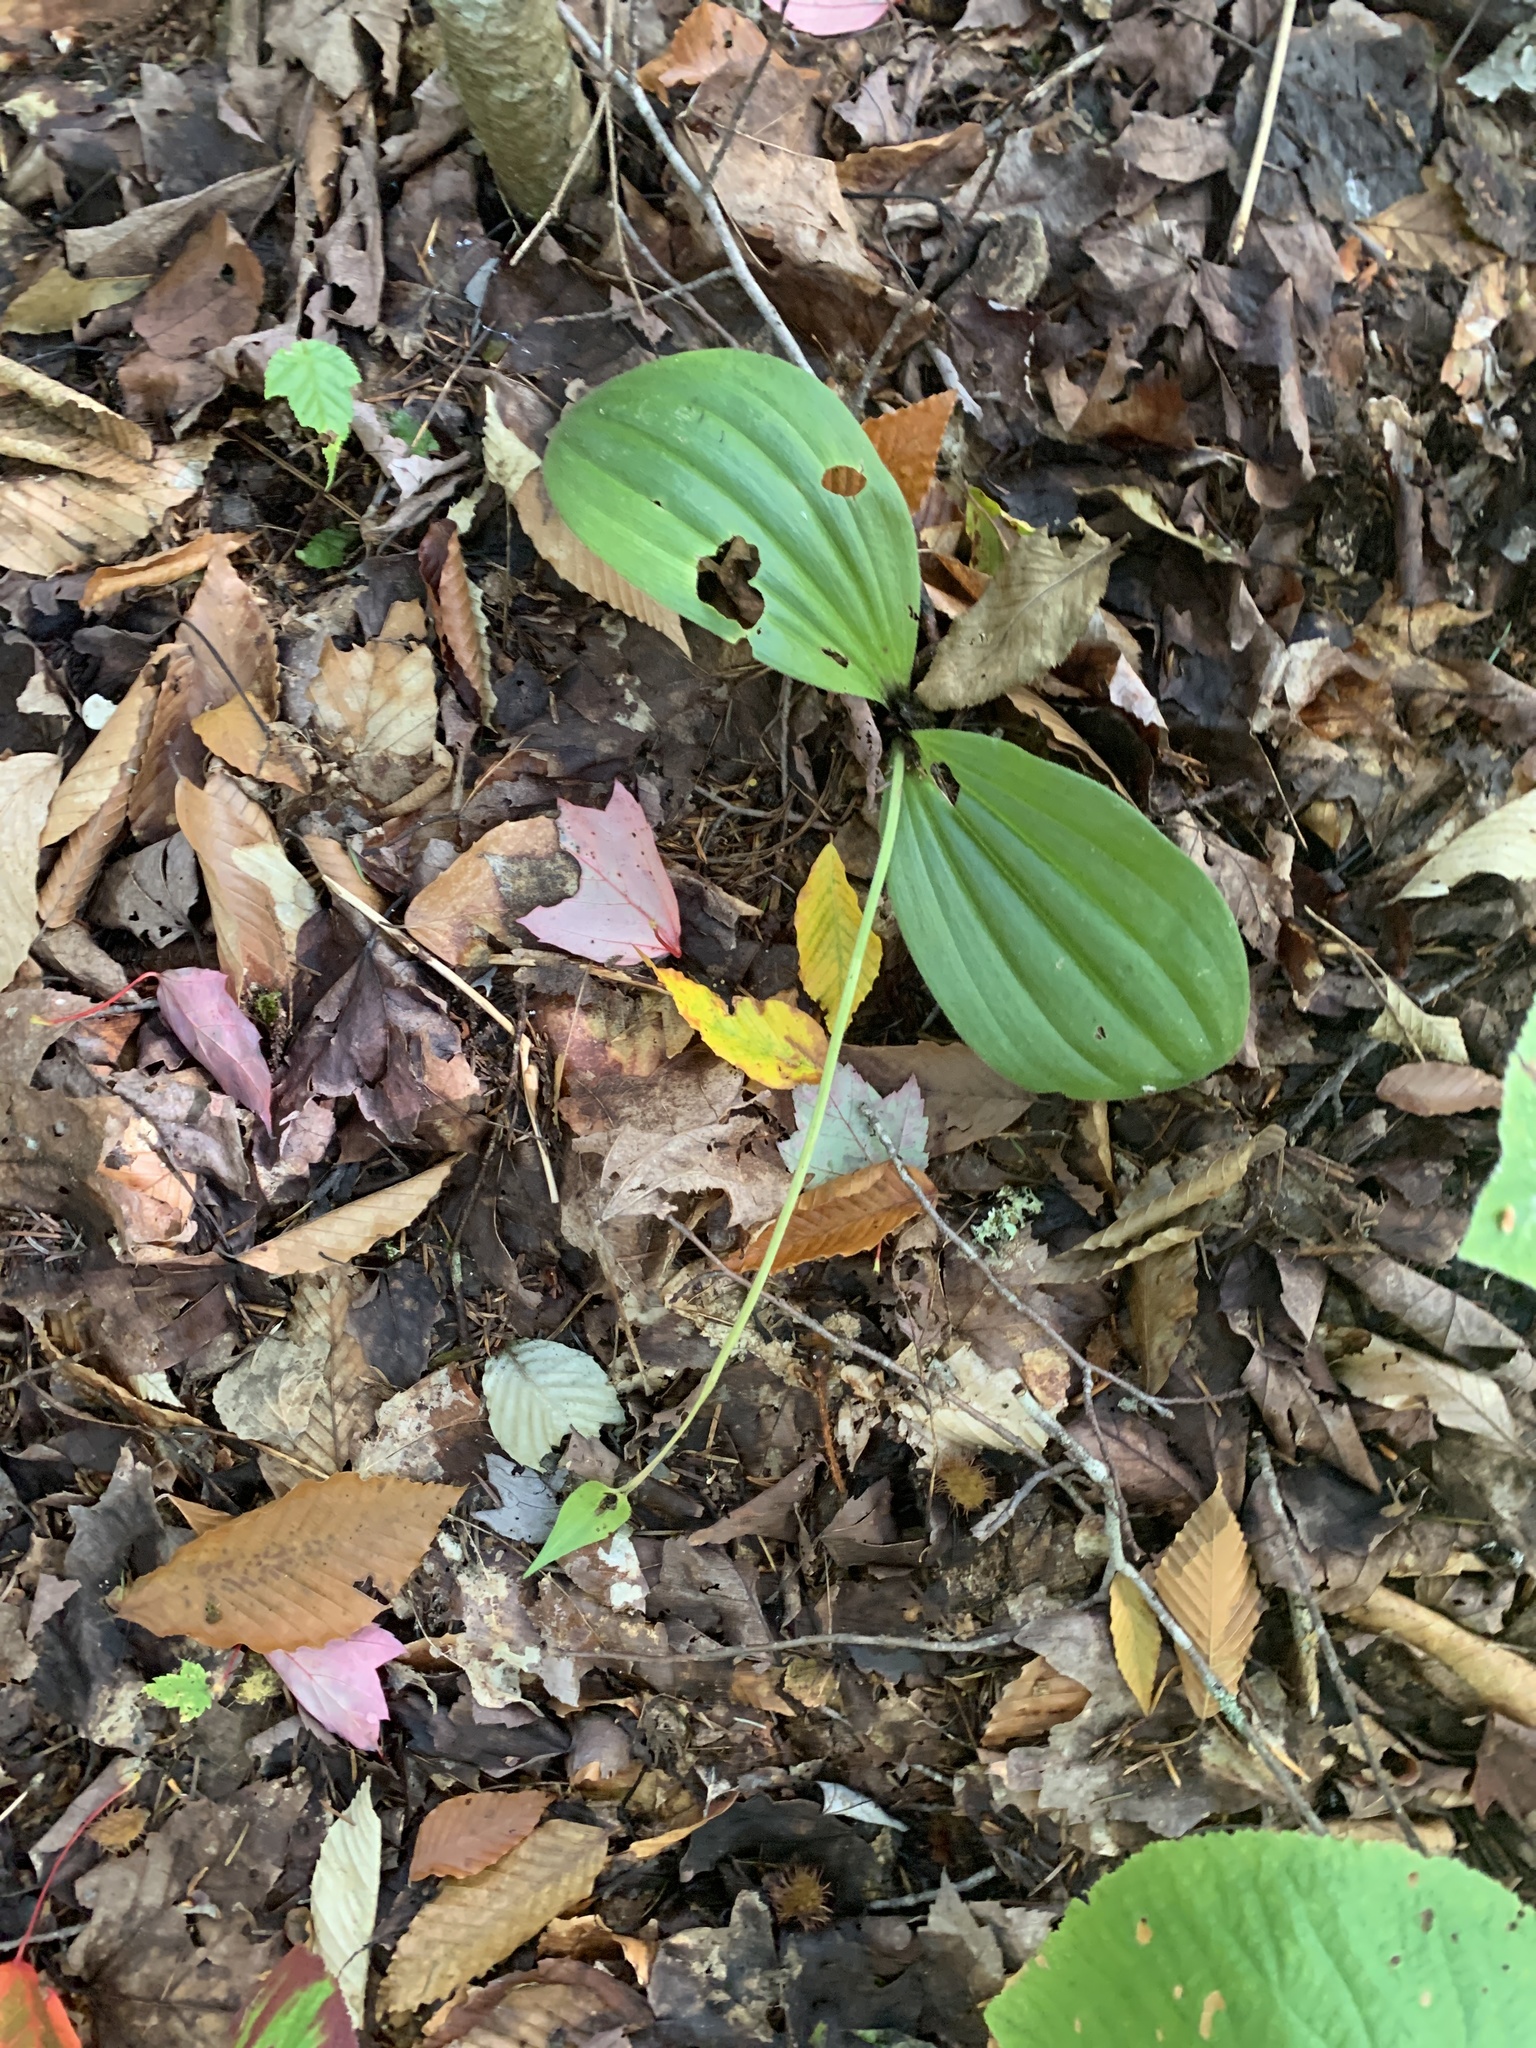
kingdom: Plantae
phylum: Tracheophyta
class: Liliopsida
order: Asparagales
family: Orchidaceae
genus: Cypripedium
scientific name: Cypripedium acaule
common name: Pink lady's-slipper
